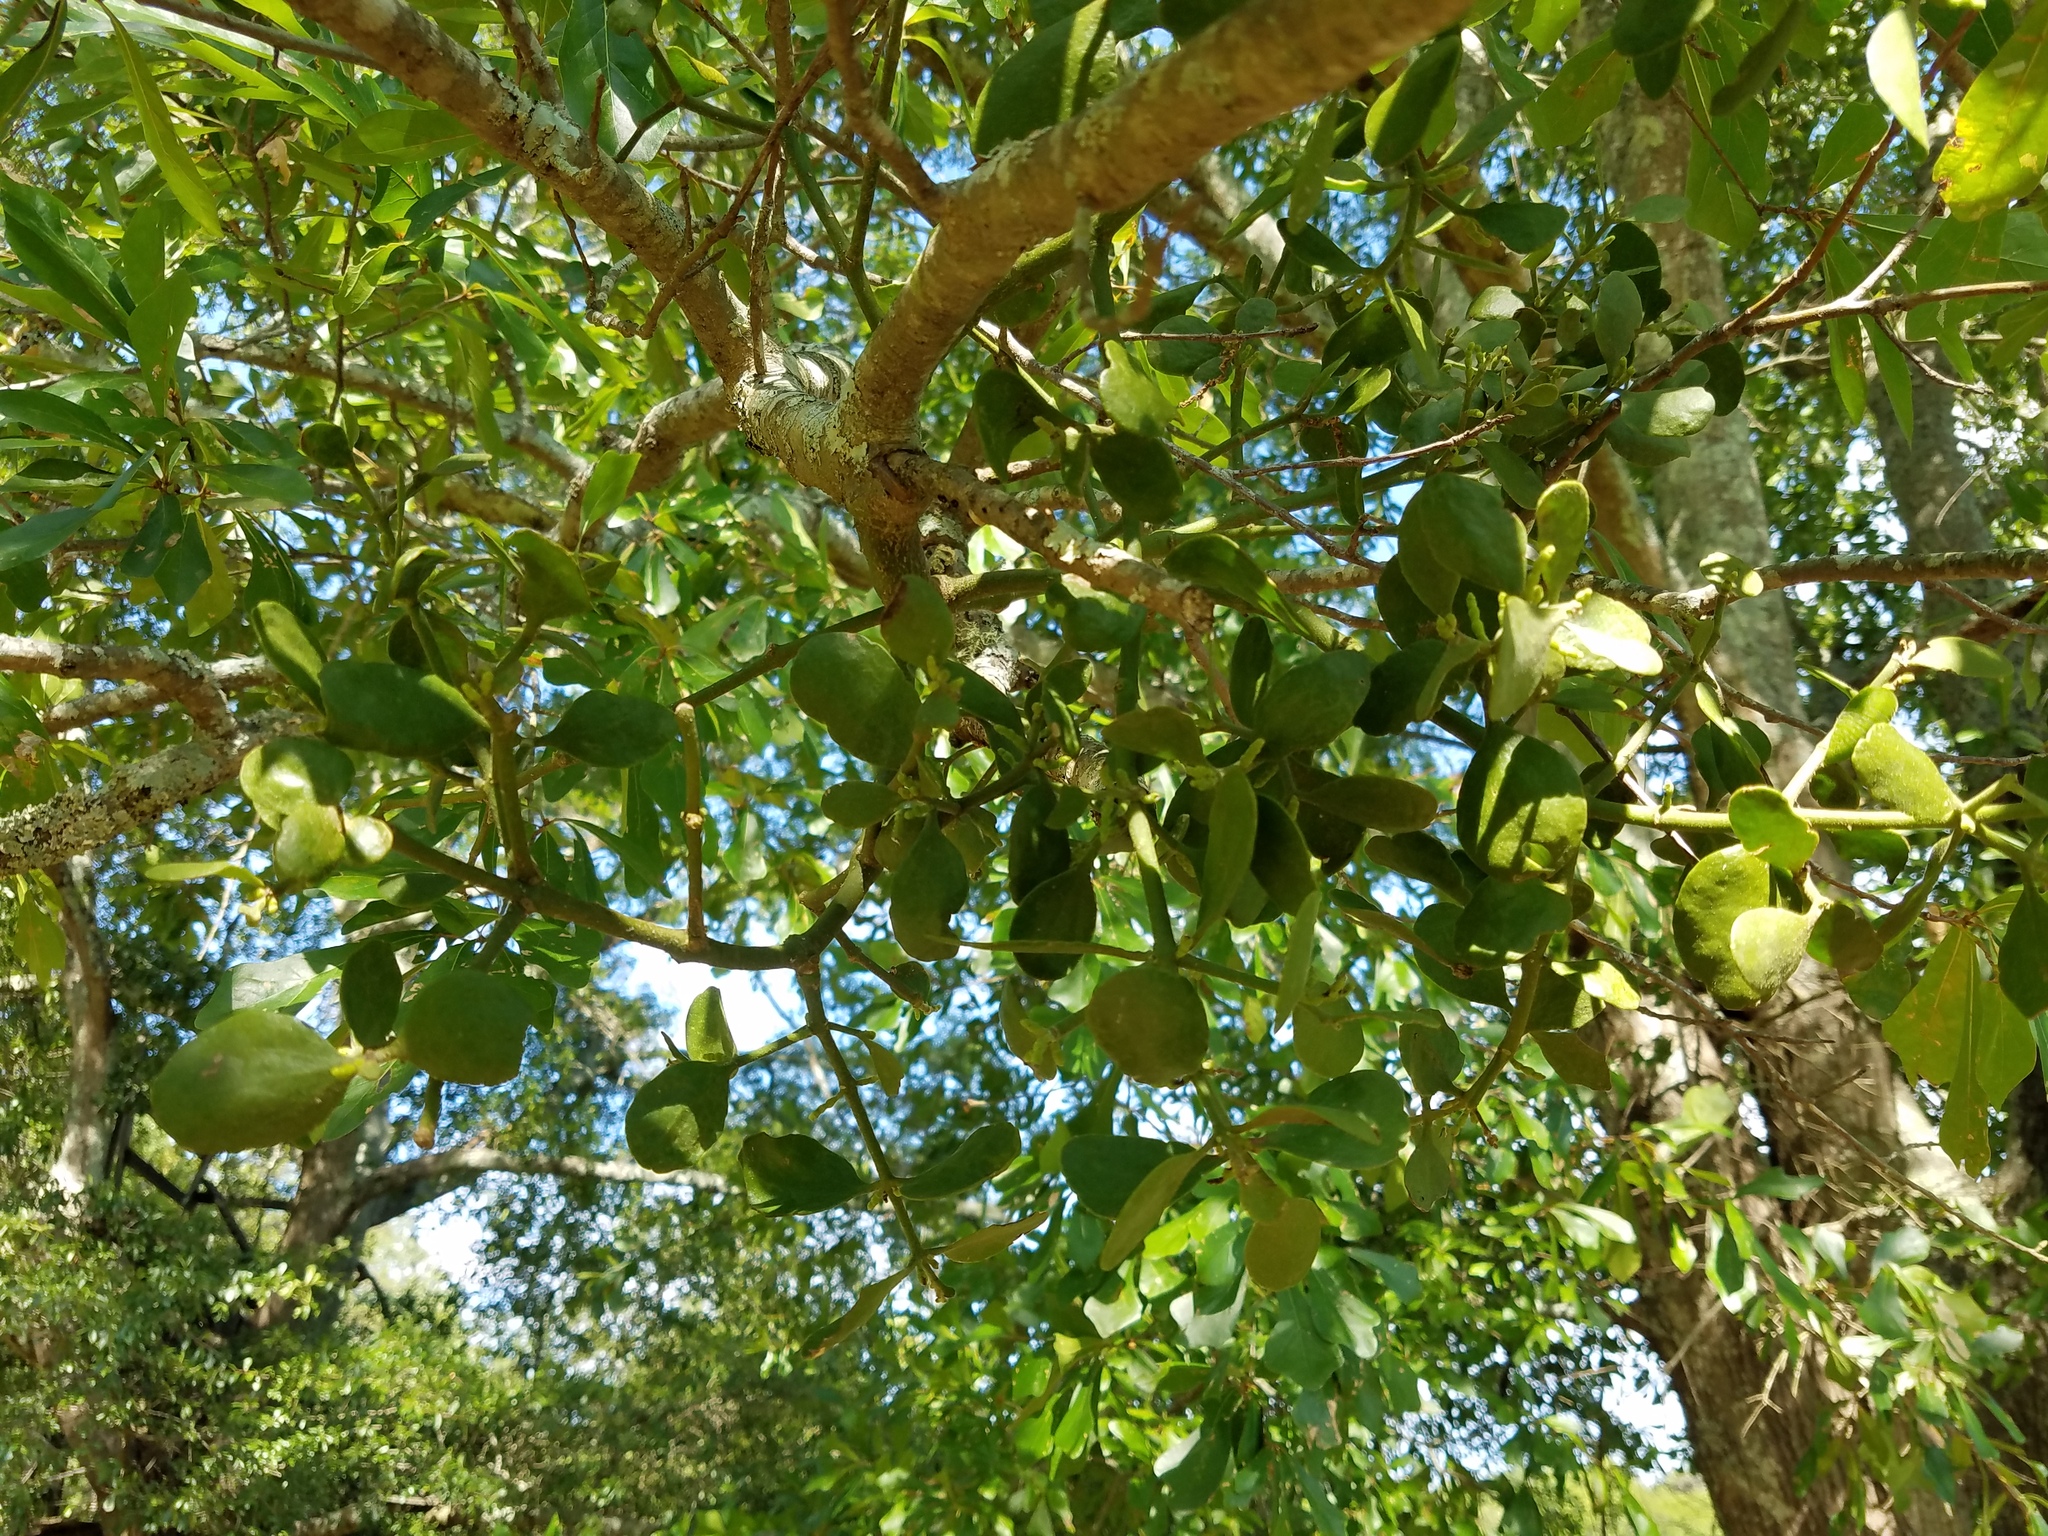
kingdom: Plantae
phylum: Tracheophyta
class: Magnoliopsida
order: Santalales
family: Viscaceae
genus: Phoradendron
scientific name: Phoradendron leucarpum
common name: Pacific mistletoe
